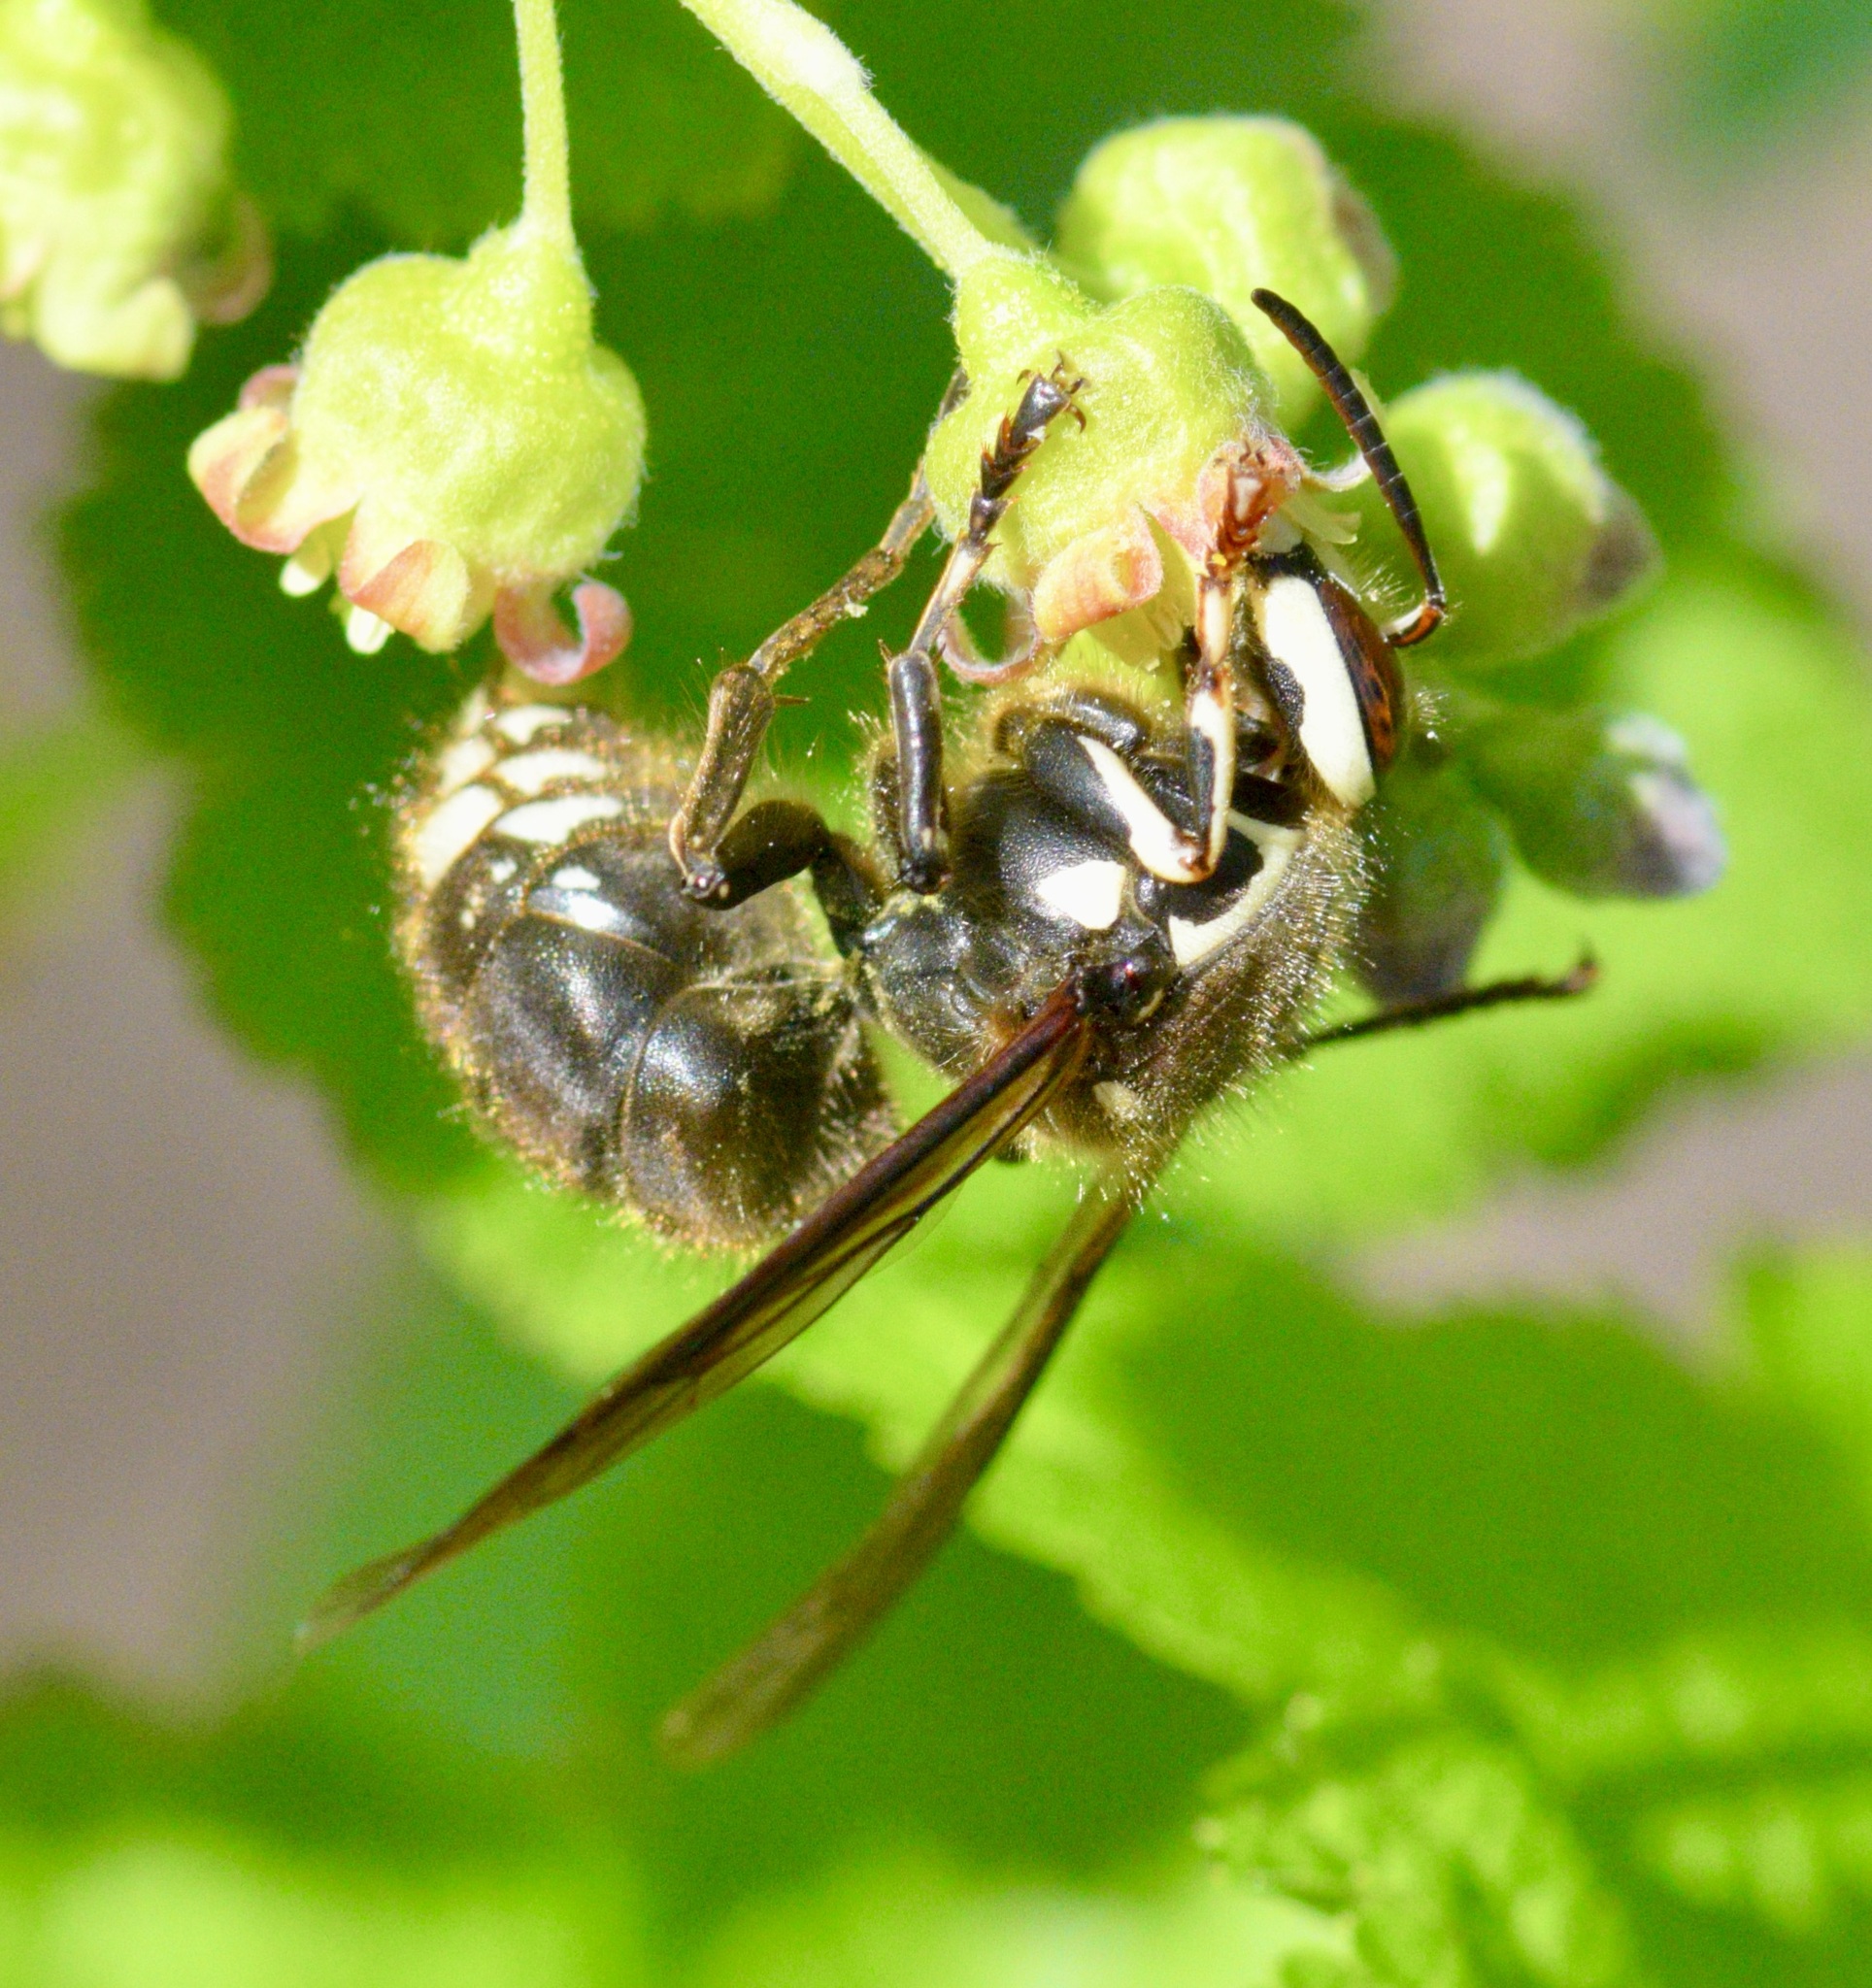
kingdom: Animalia
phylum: Arthropoda
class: Insecta
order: Hymenoptera
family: Vespidae
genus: Dolichovespula
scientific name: Dolichovespula maculata
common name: Bald-faced hornet
